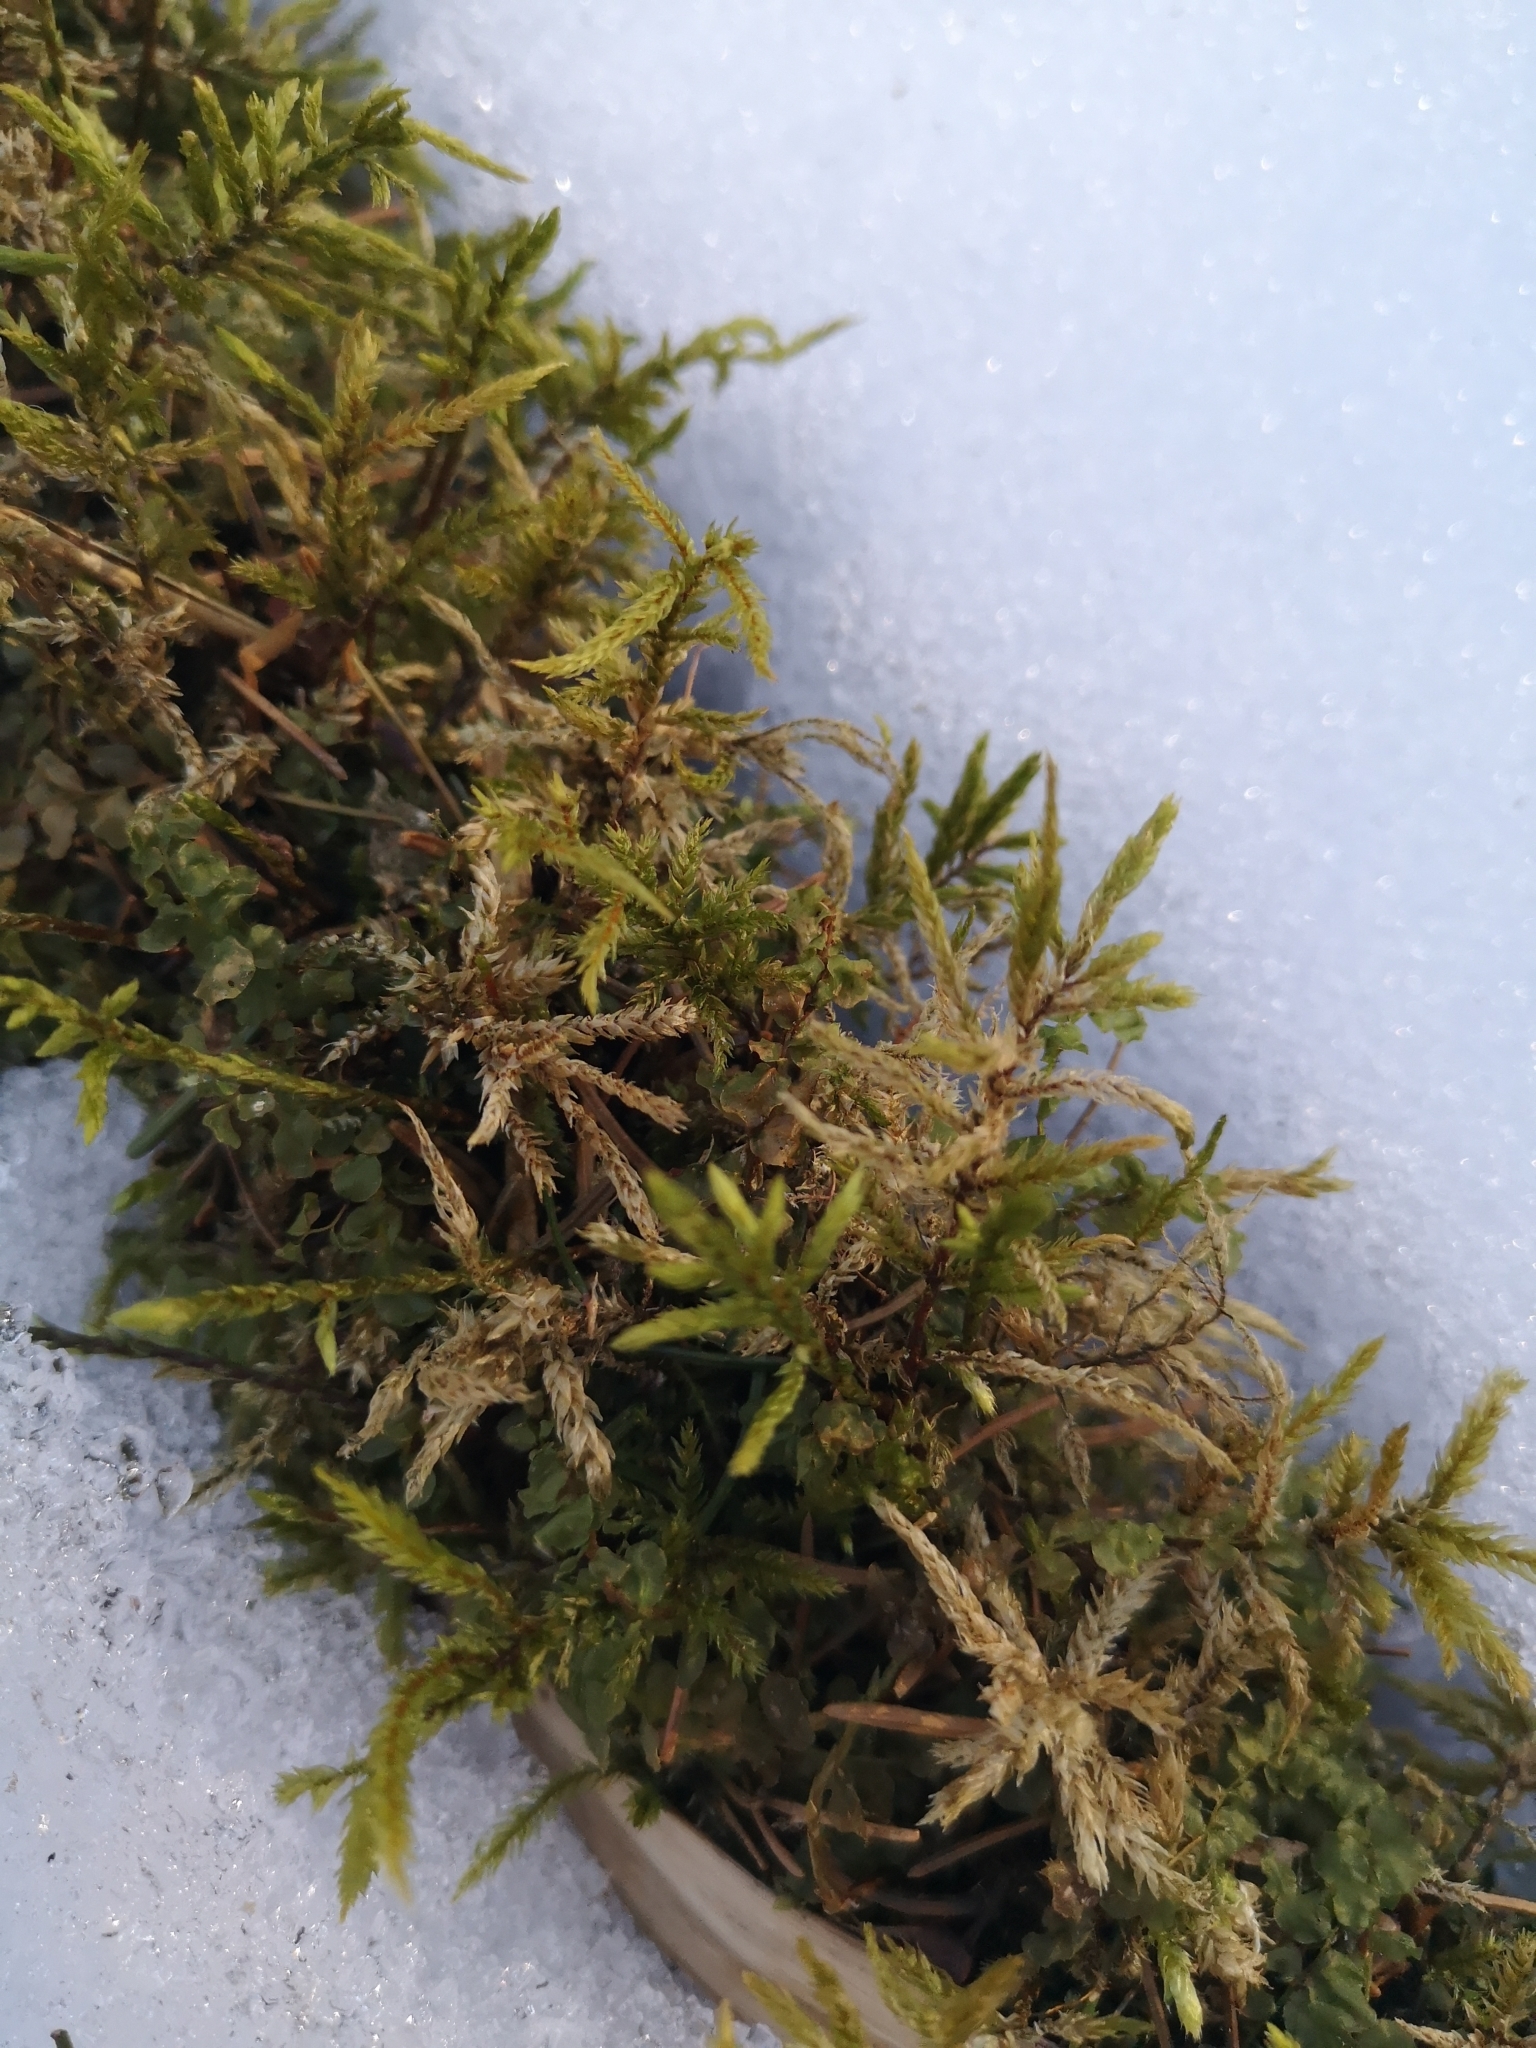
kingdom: Plantae
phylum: Bryophyta
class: Bryopsida
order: Hypnales
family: Climaciaceae
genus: Climacium
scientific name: Climacium dendroides
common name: Northern tree moss
